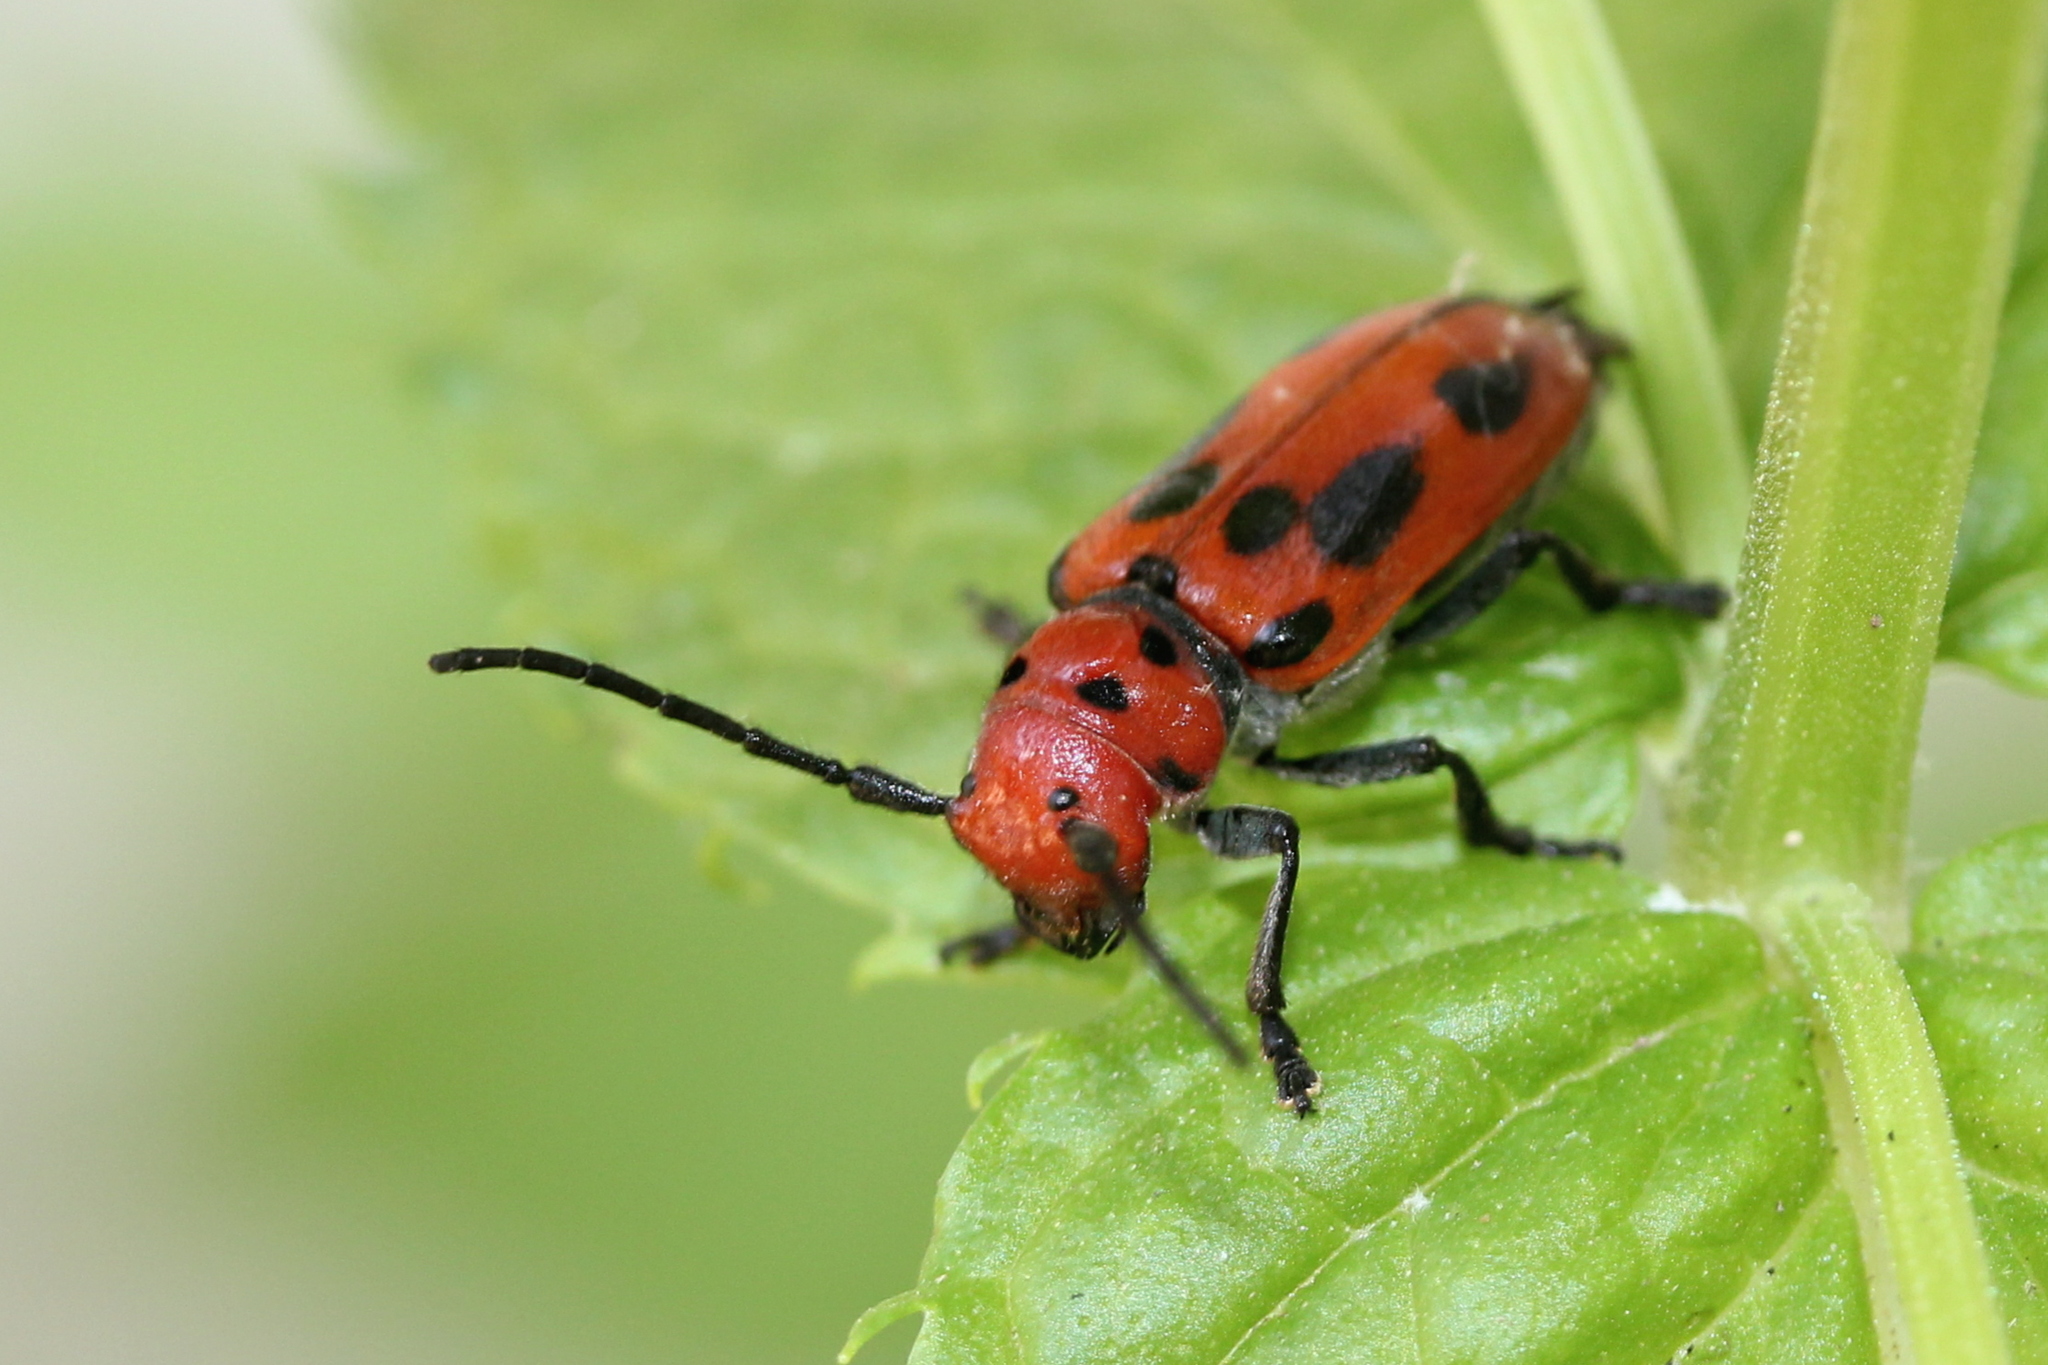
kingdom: Animalia
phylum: Arthropoda
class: Insecta
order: Coleoptera
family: Cerambycidae
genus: Tetraopes
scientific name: Tetraopes tetrophthalmus
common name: Red milkweed beetle
